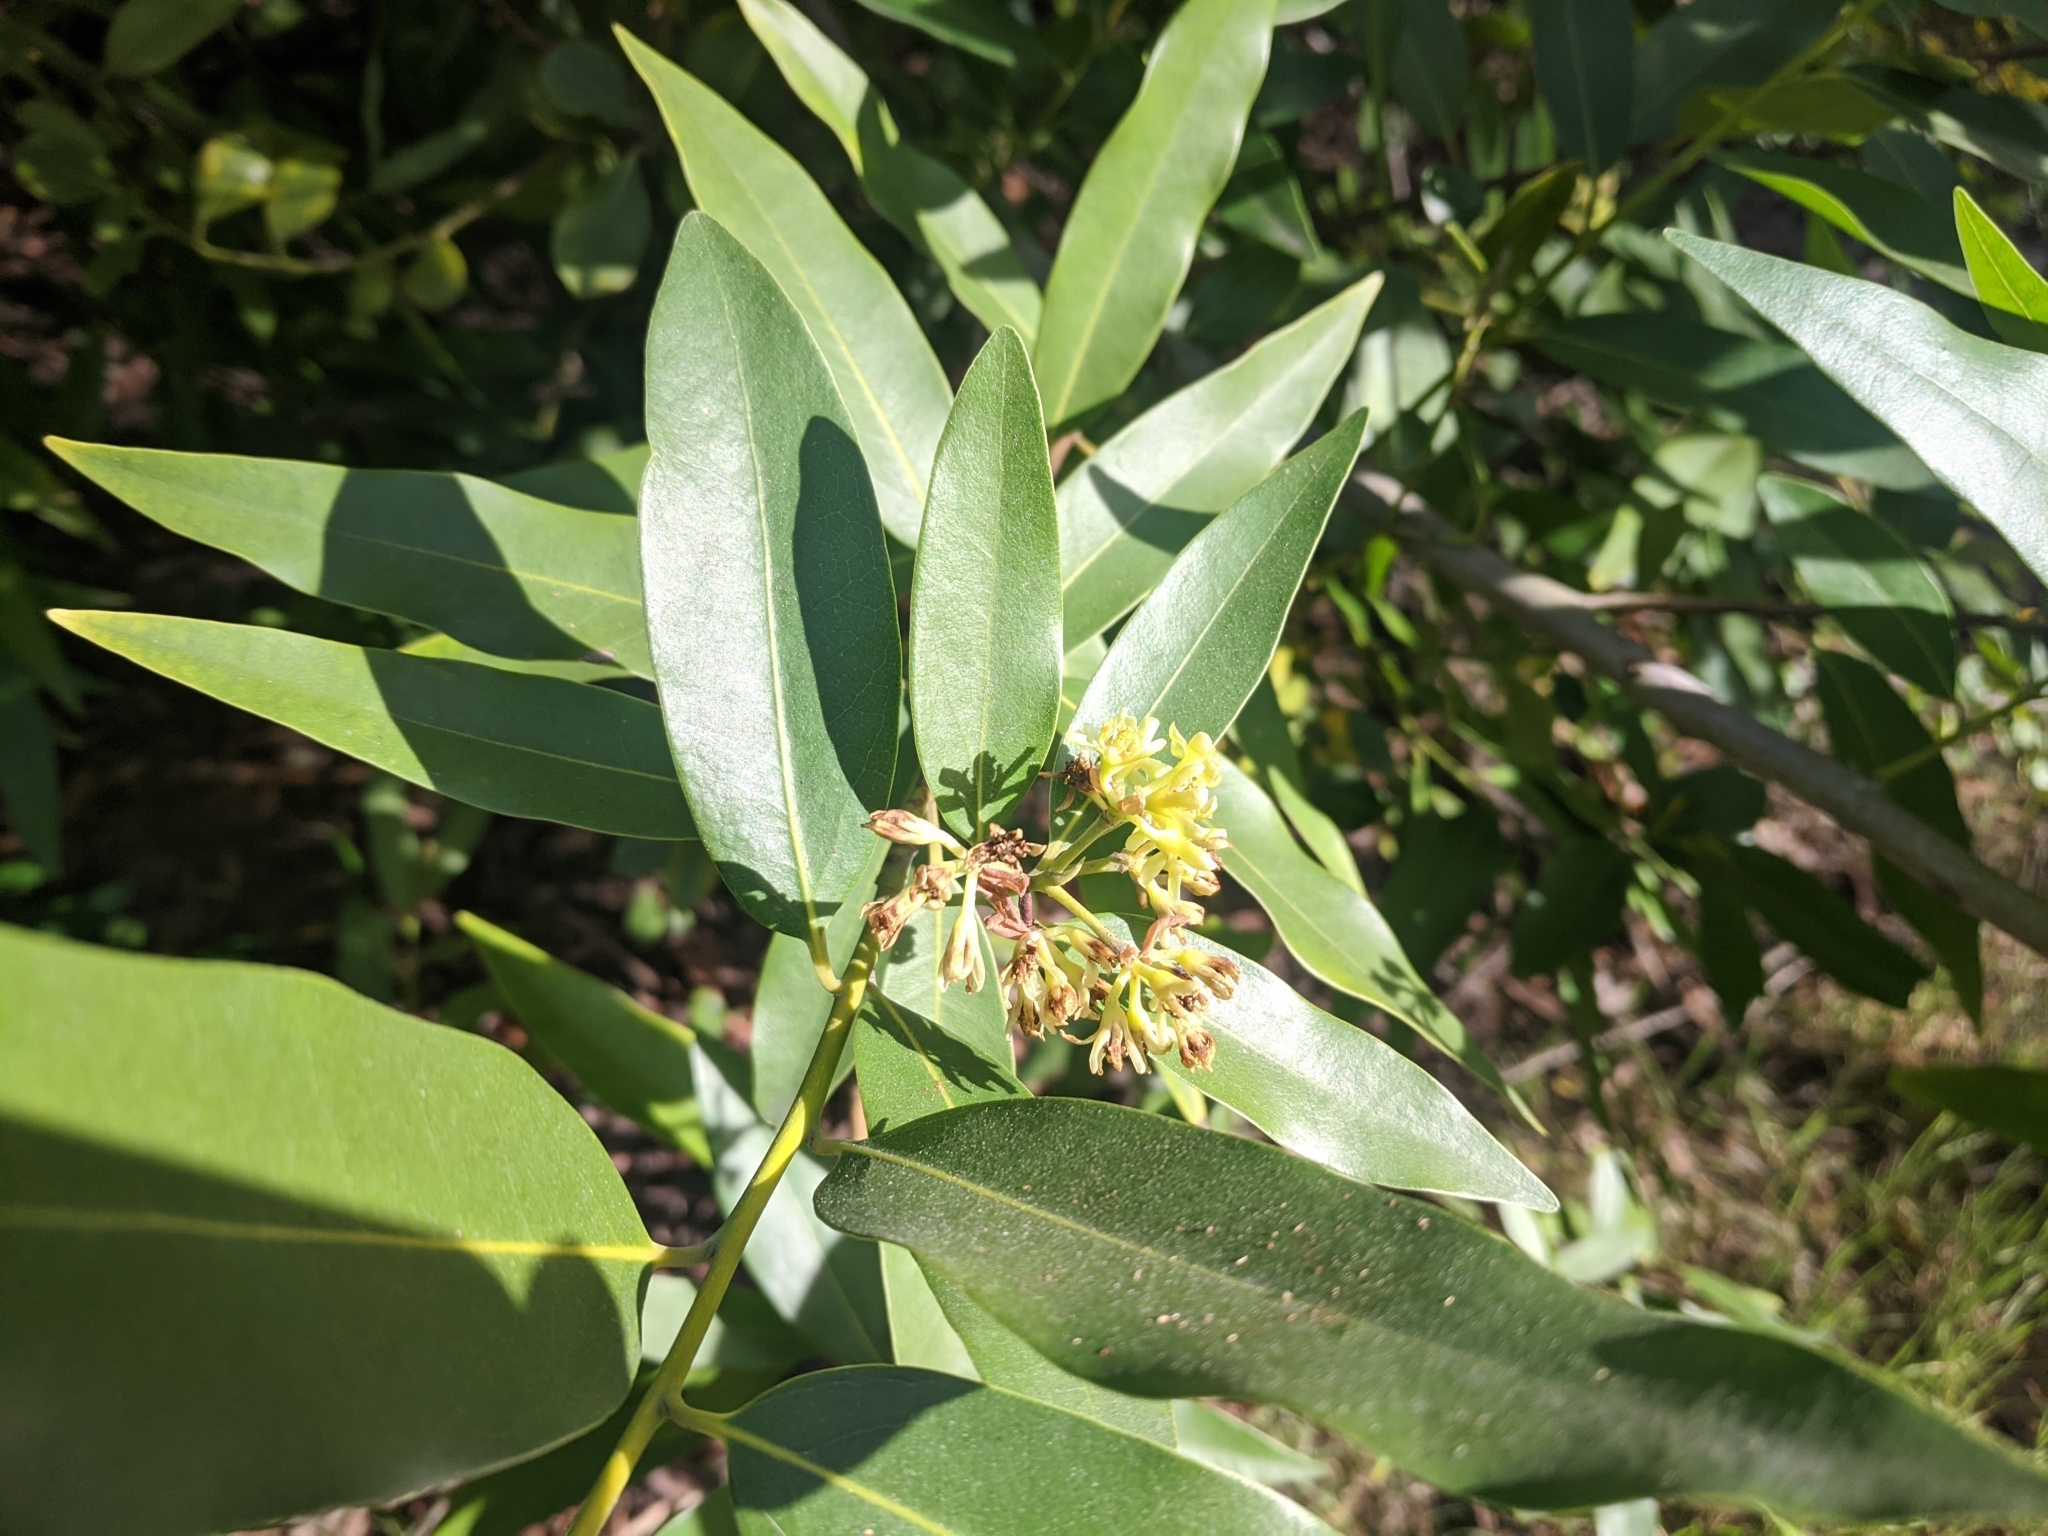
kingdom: Plantae
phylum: Tracheophyta
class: Magnoliopsida
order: Laurales
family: Lauraceae
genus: Umbellularia
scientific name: Umbellularia californica
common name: California bay
